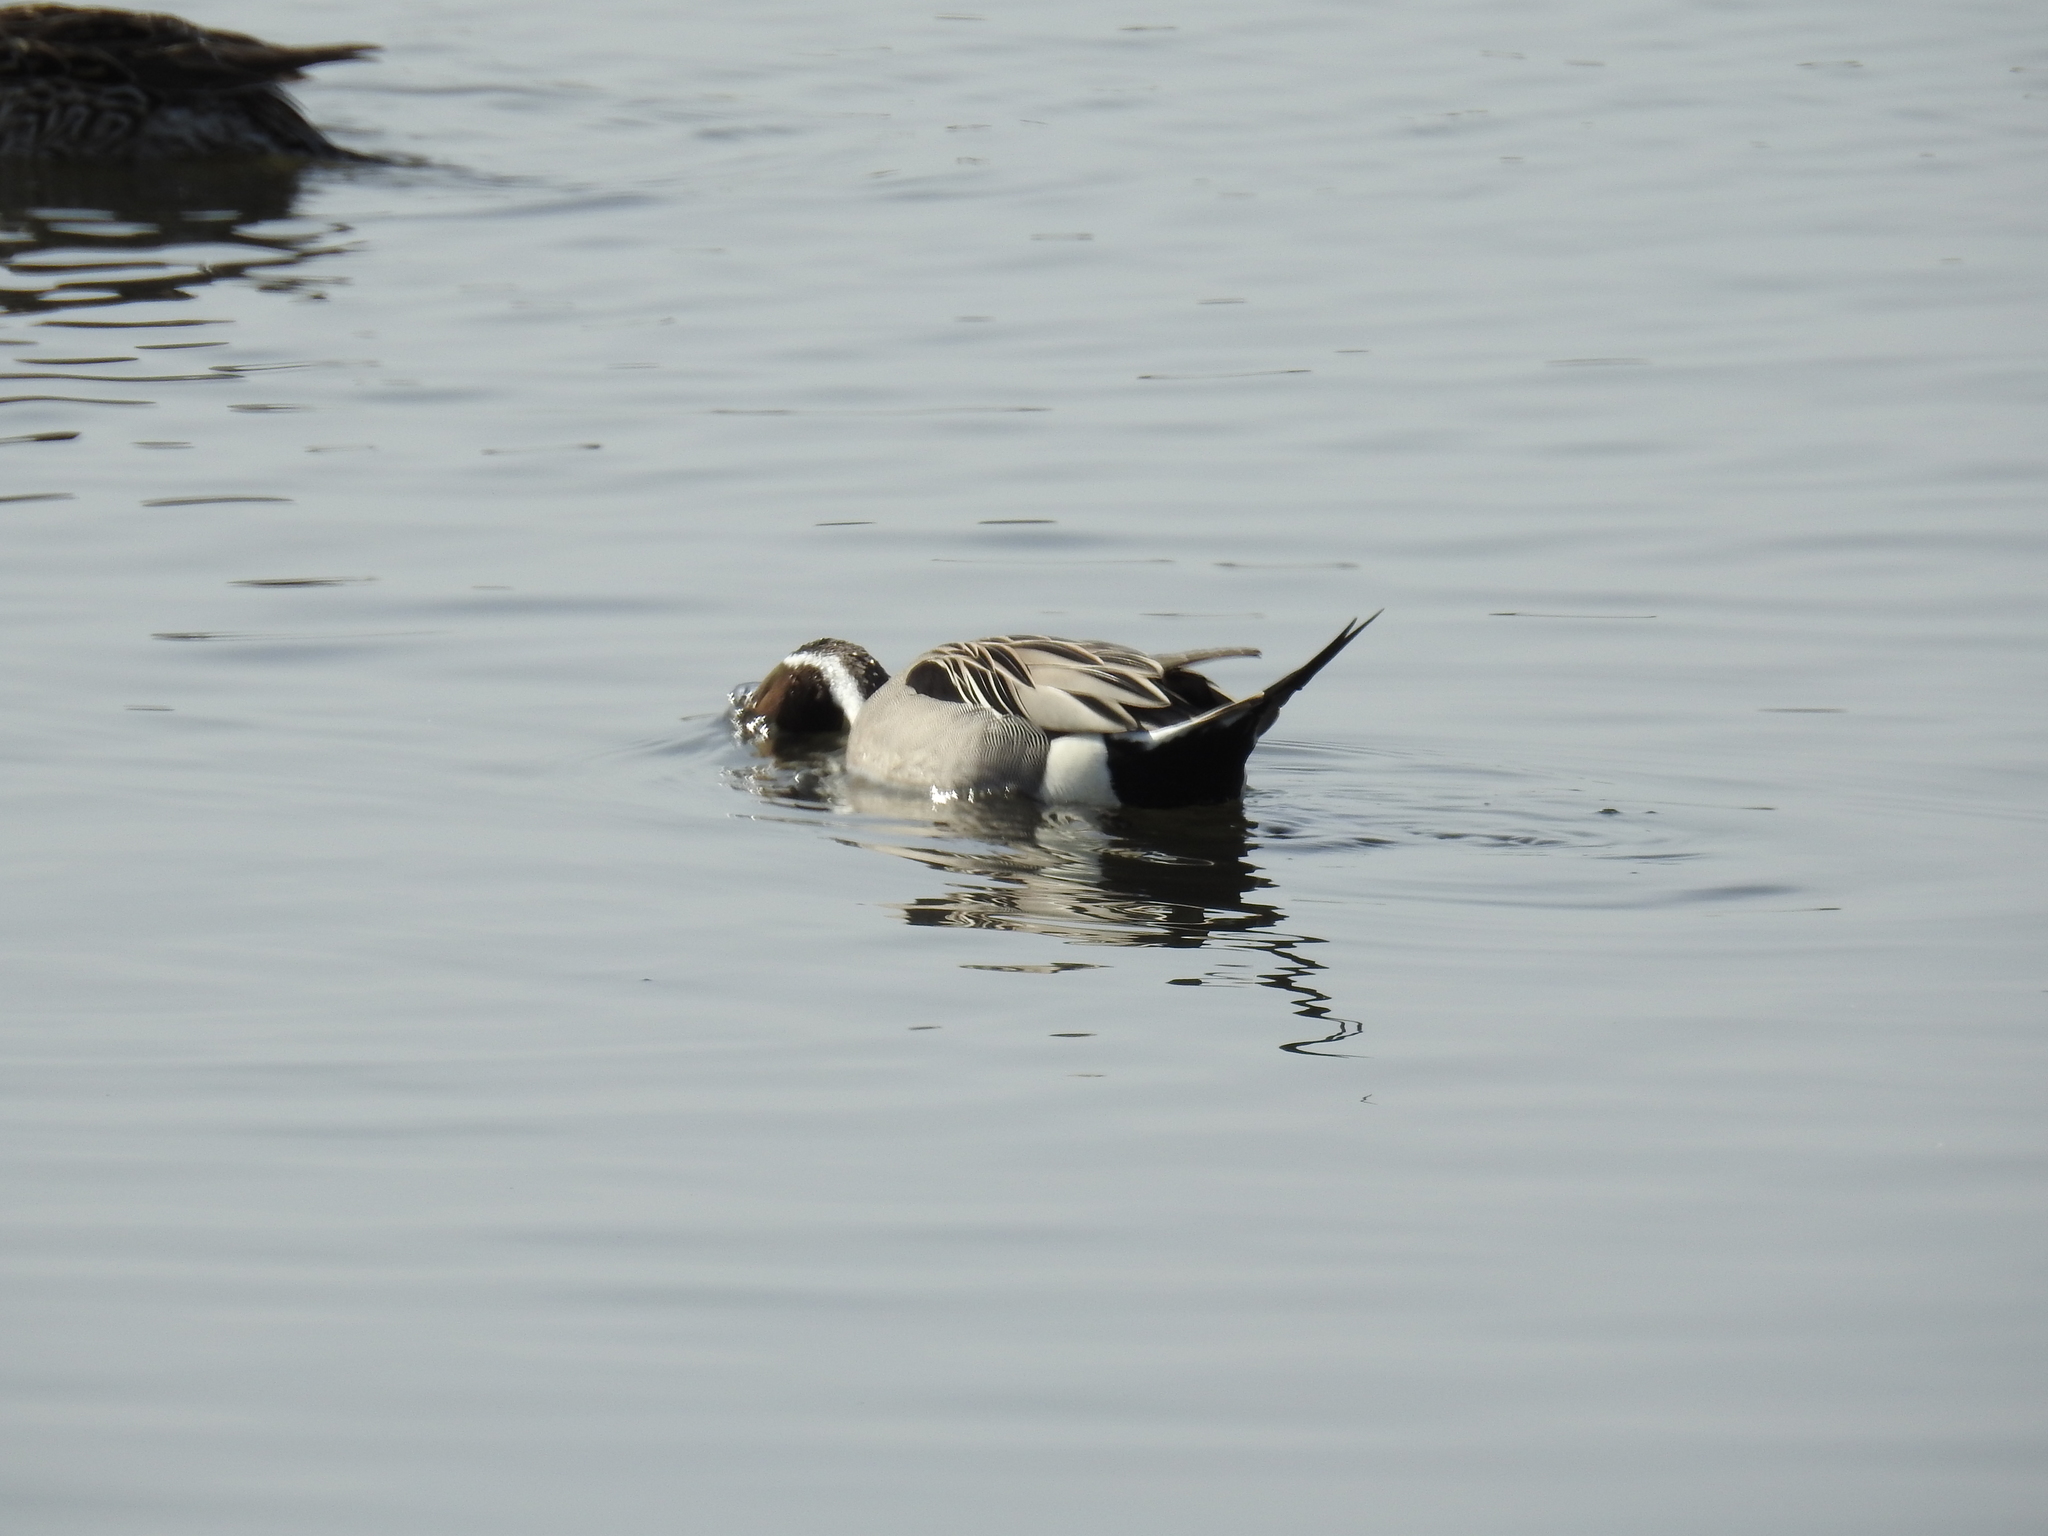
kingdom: Animalia
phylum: Chordata
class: Aves
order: Anseriformes
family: Anatidae
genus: Anas
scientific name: Anas acuta
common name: Northern pintail
